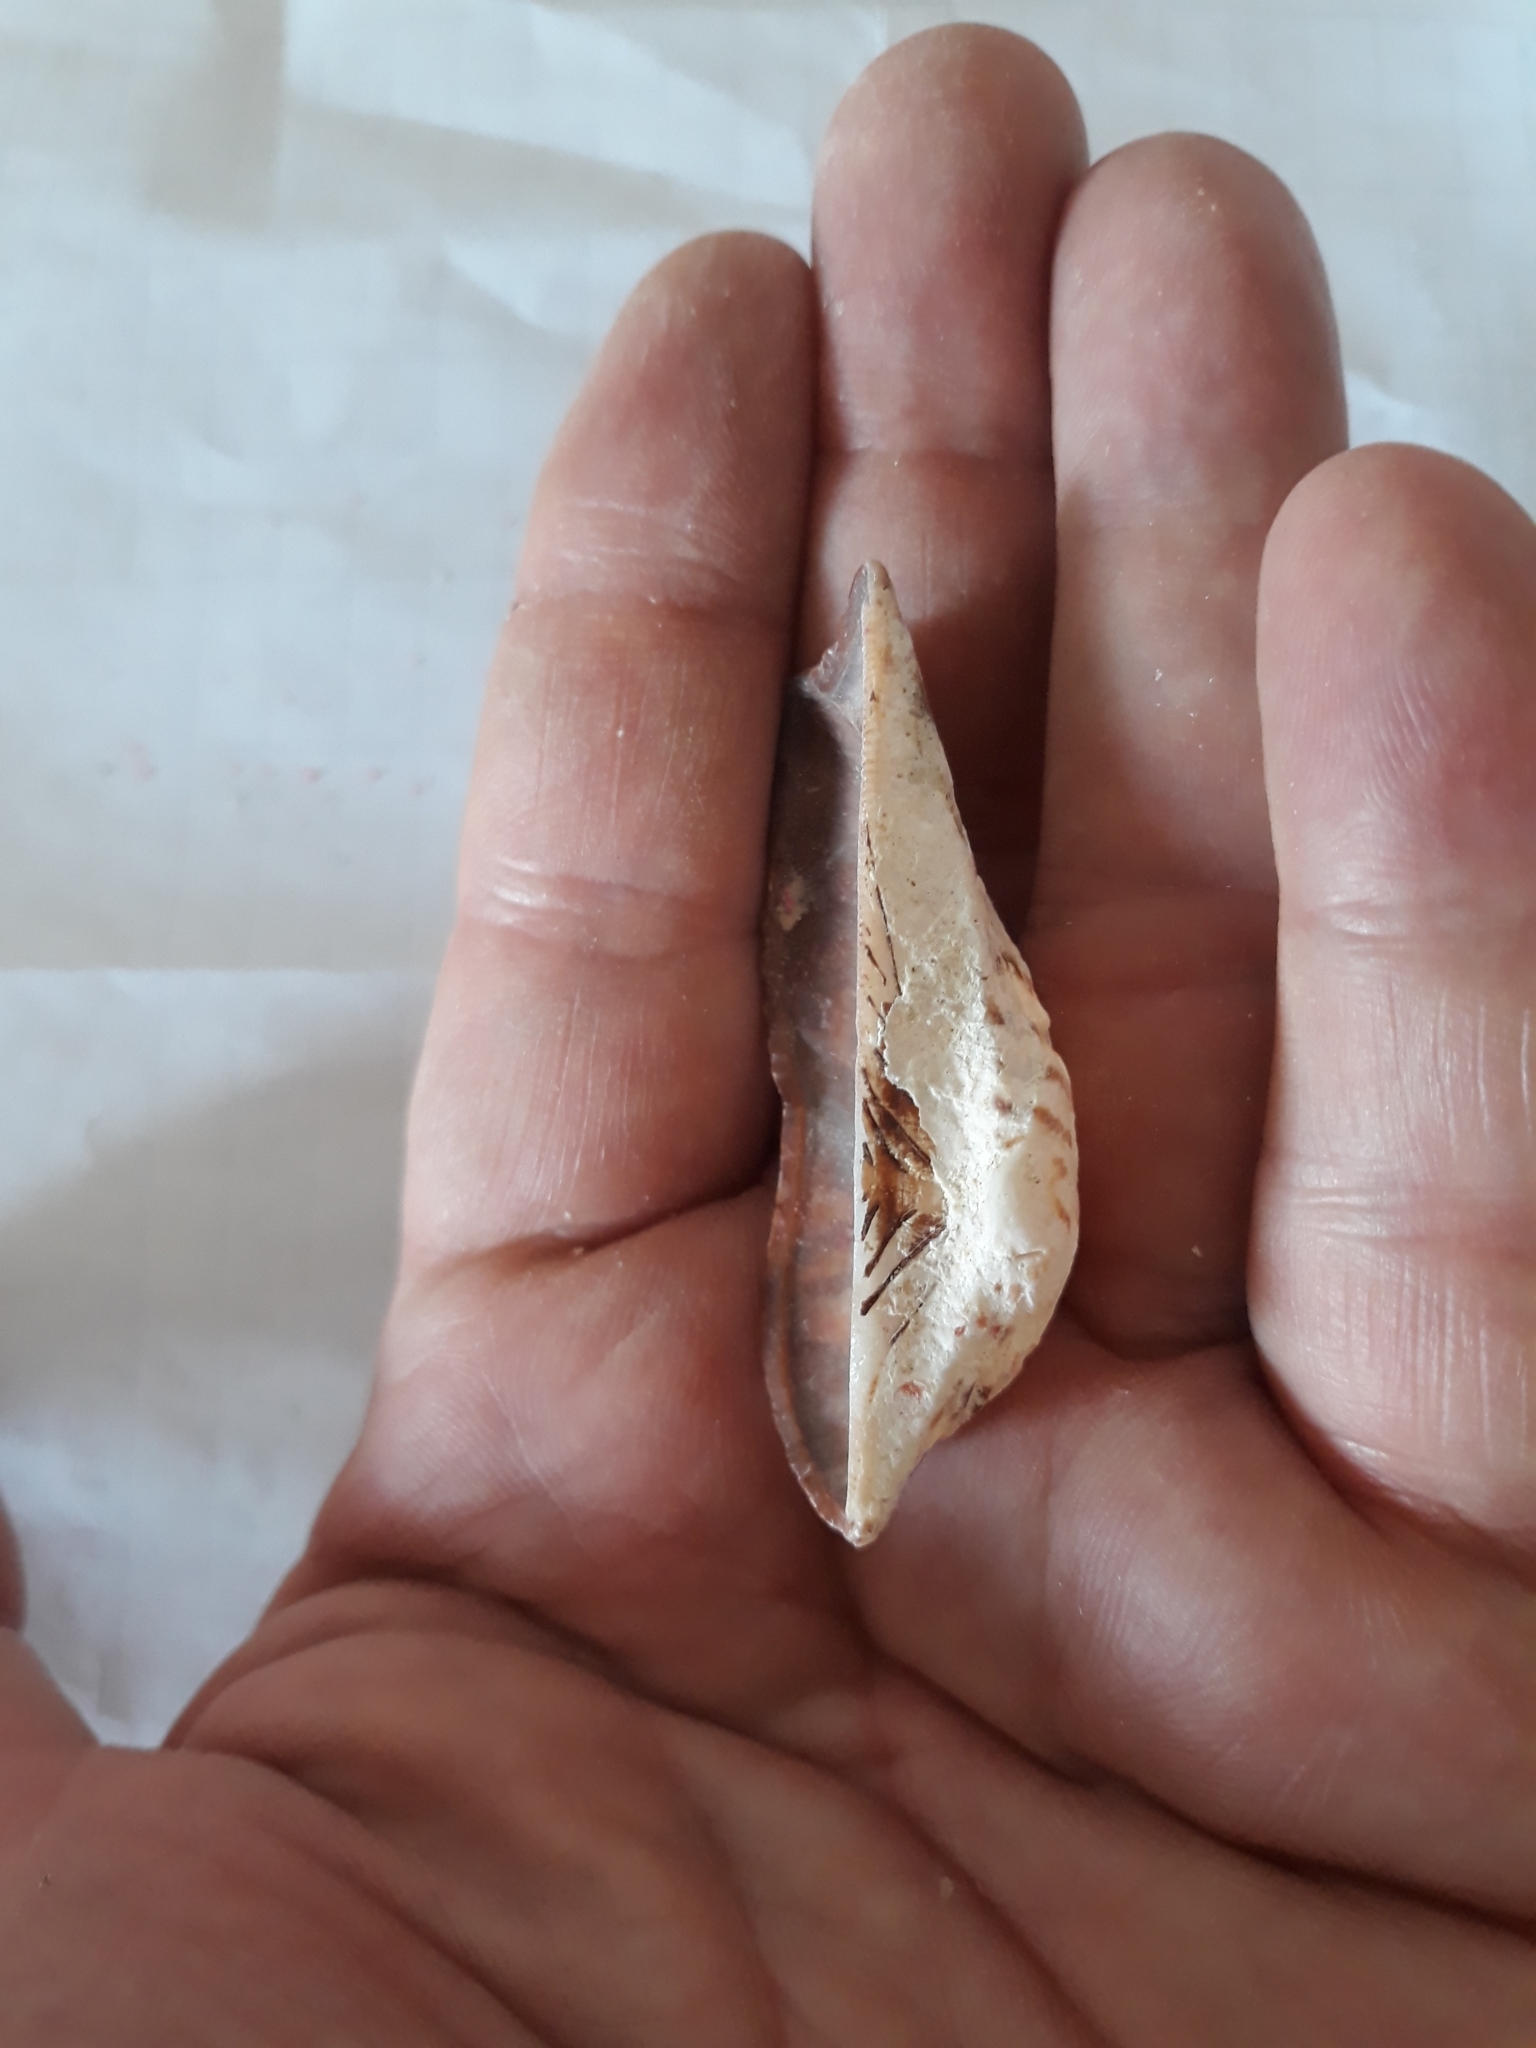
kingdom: Animalia
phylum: Mollusca
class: Bivalvia
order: Arcida
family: Arcidae
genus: Arca
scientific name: Arca navicularis
